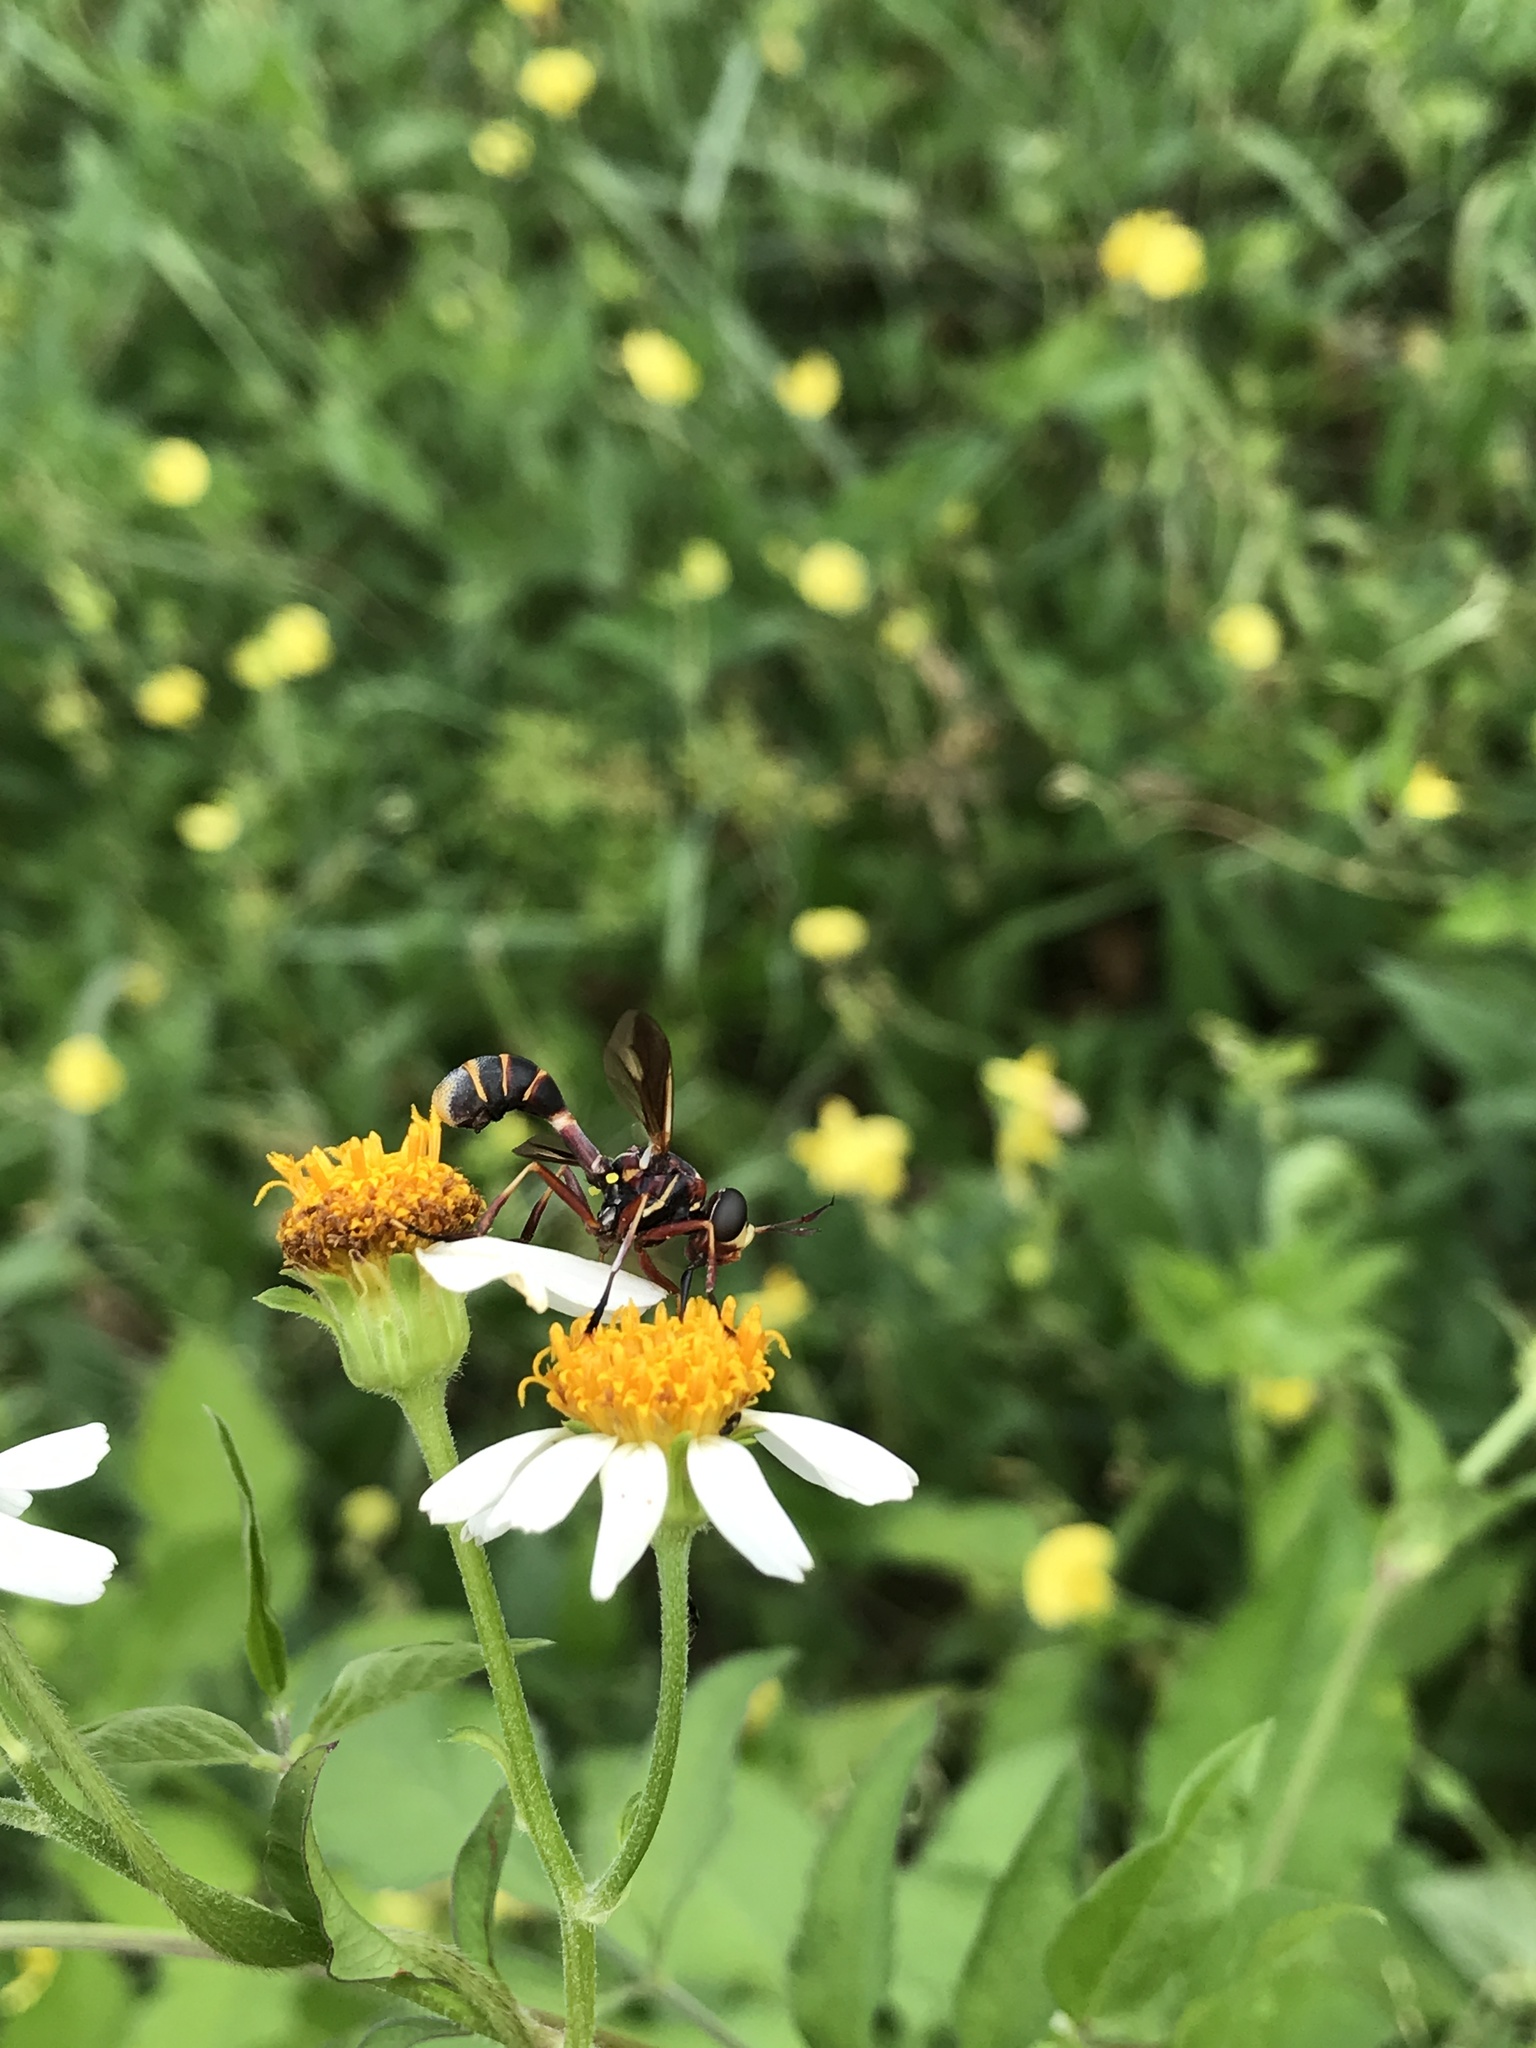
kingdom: Animalia
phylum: Arthropoda
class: Insecta
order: Diptera
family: Conopidae
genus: Physoconops
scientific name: Physoconops excisus
